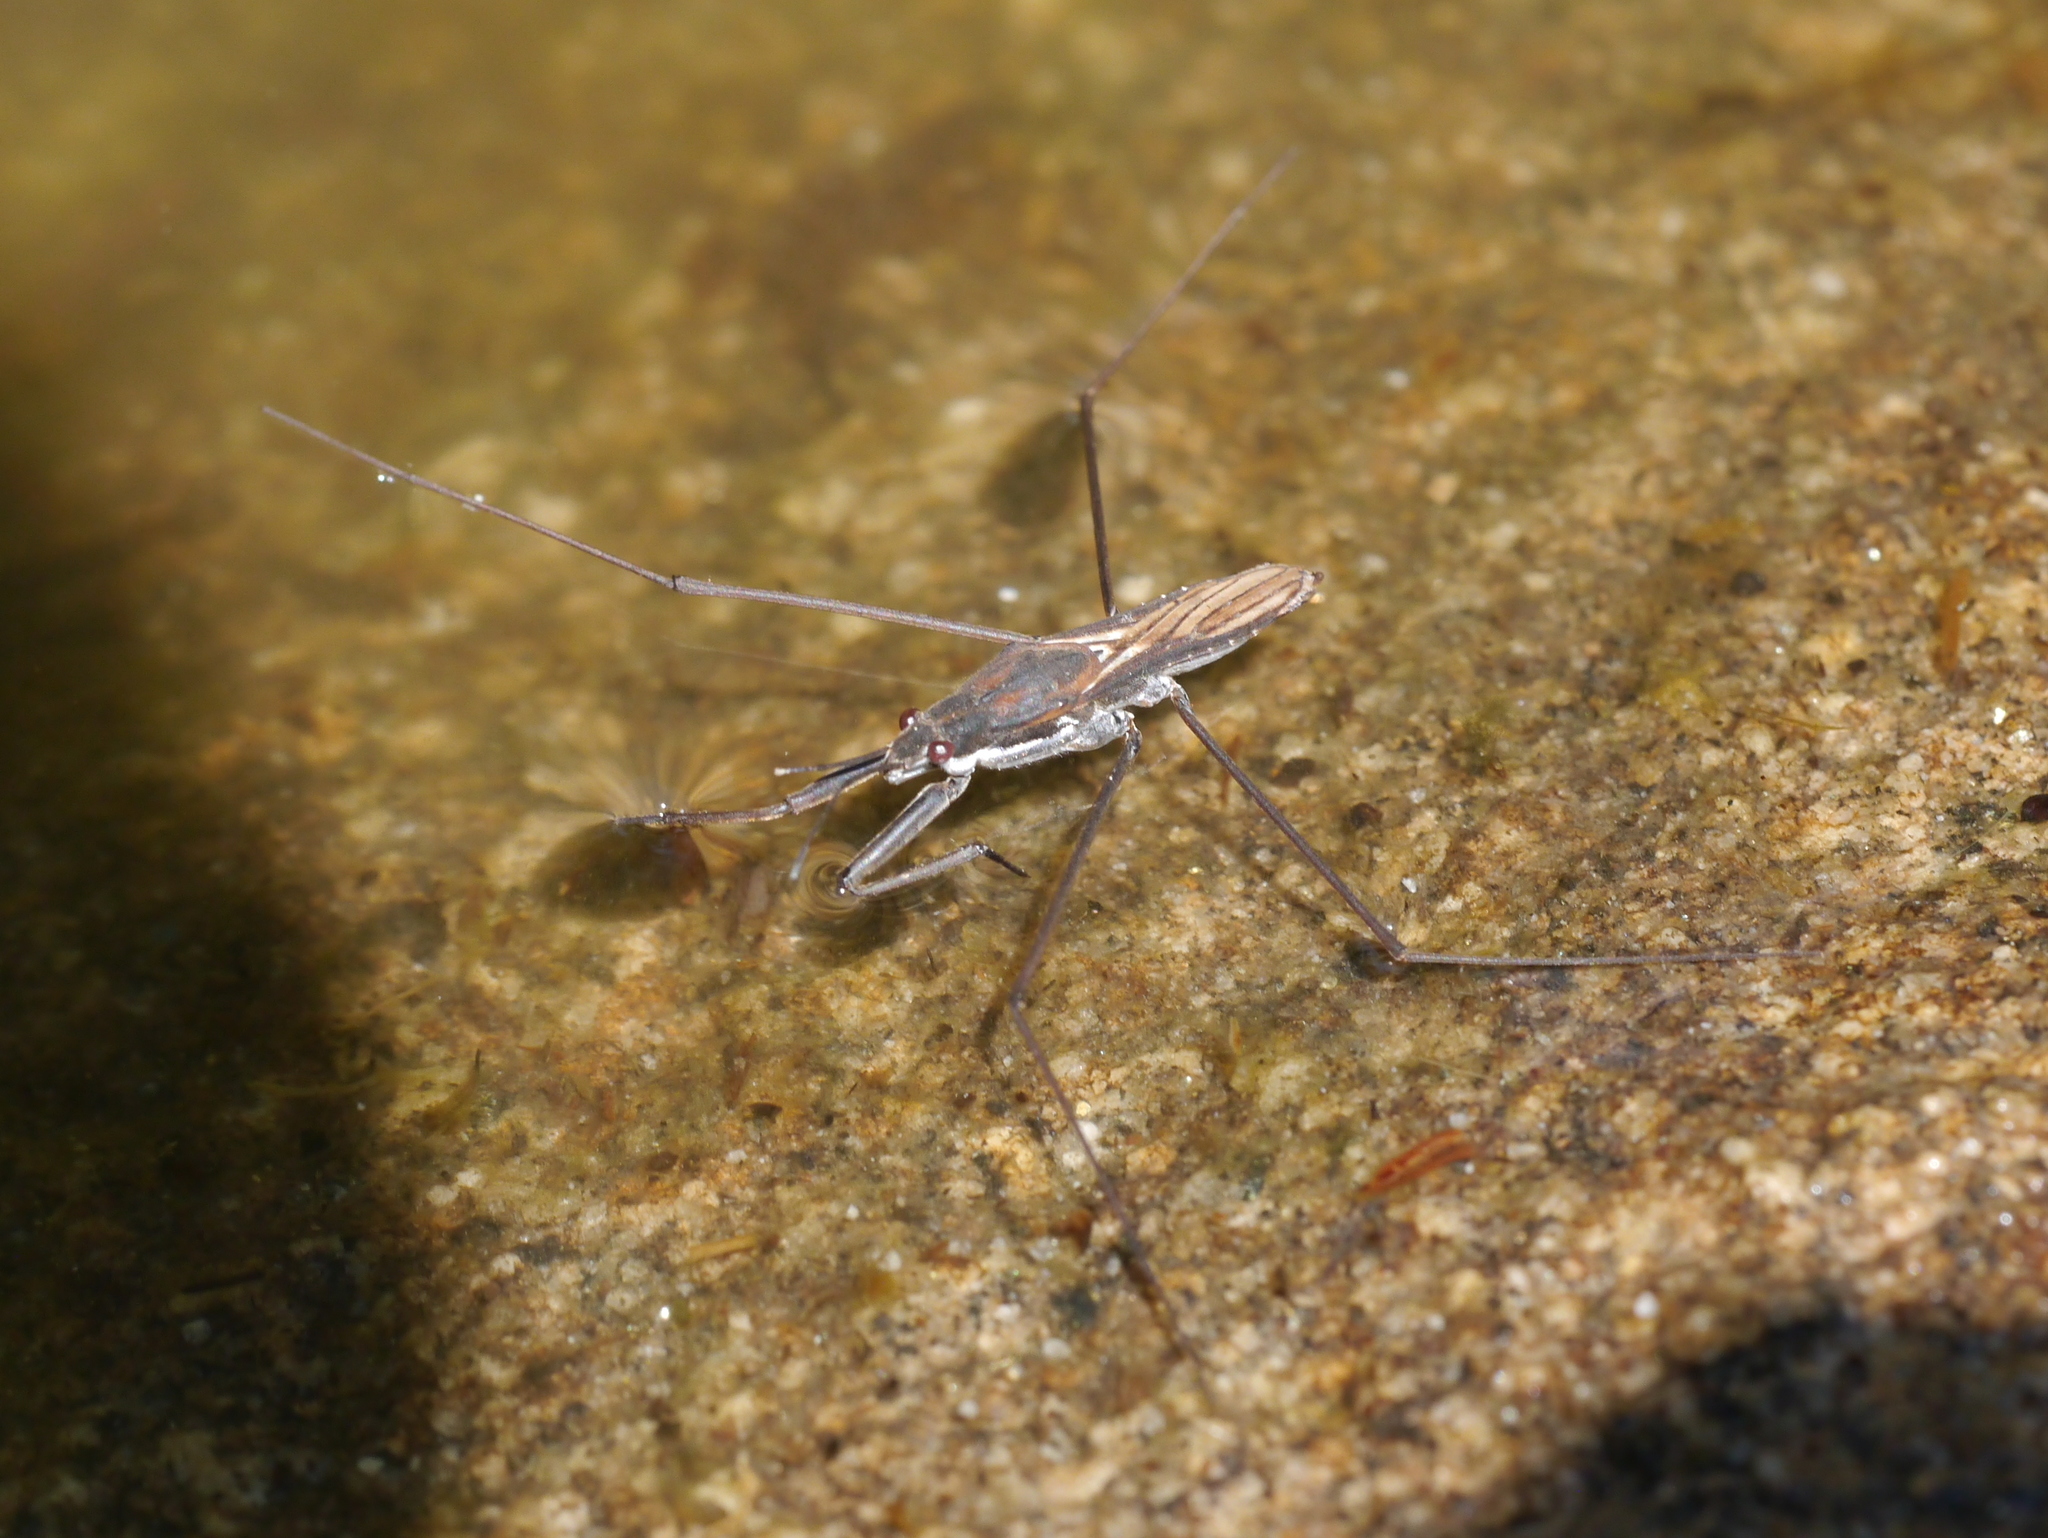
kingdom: Animalia
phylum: Arthropoda
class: Insecta
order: Hemiptera
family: Gerridae
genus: Aquarius
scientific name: Aquarius remigis
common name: Common water strider
